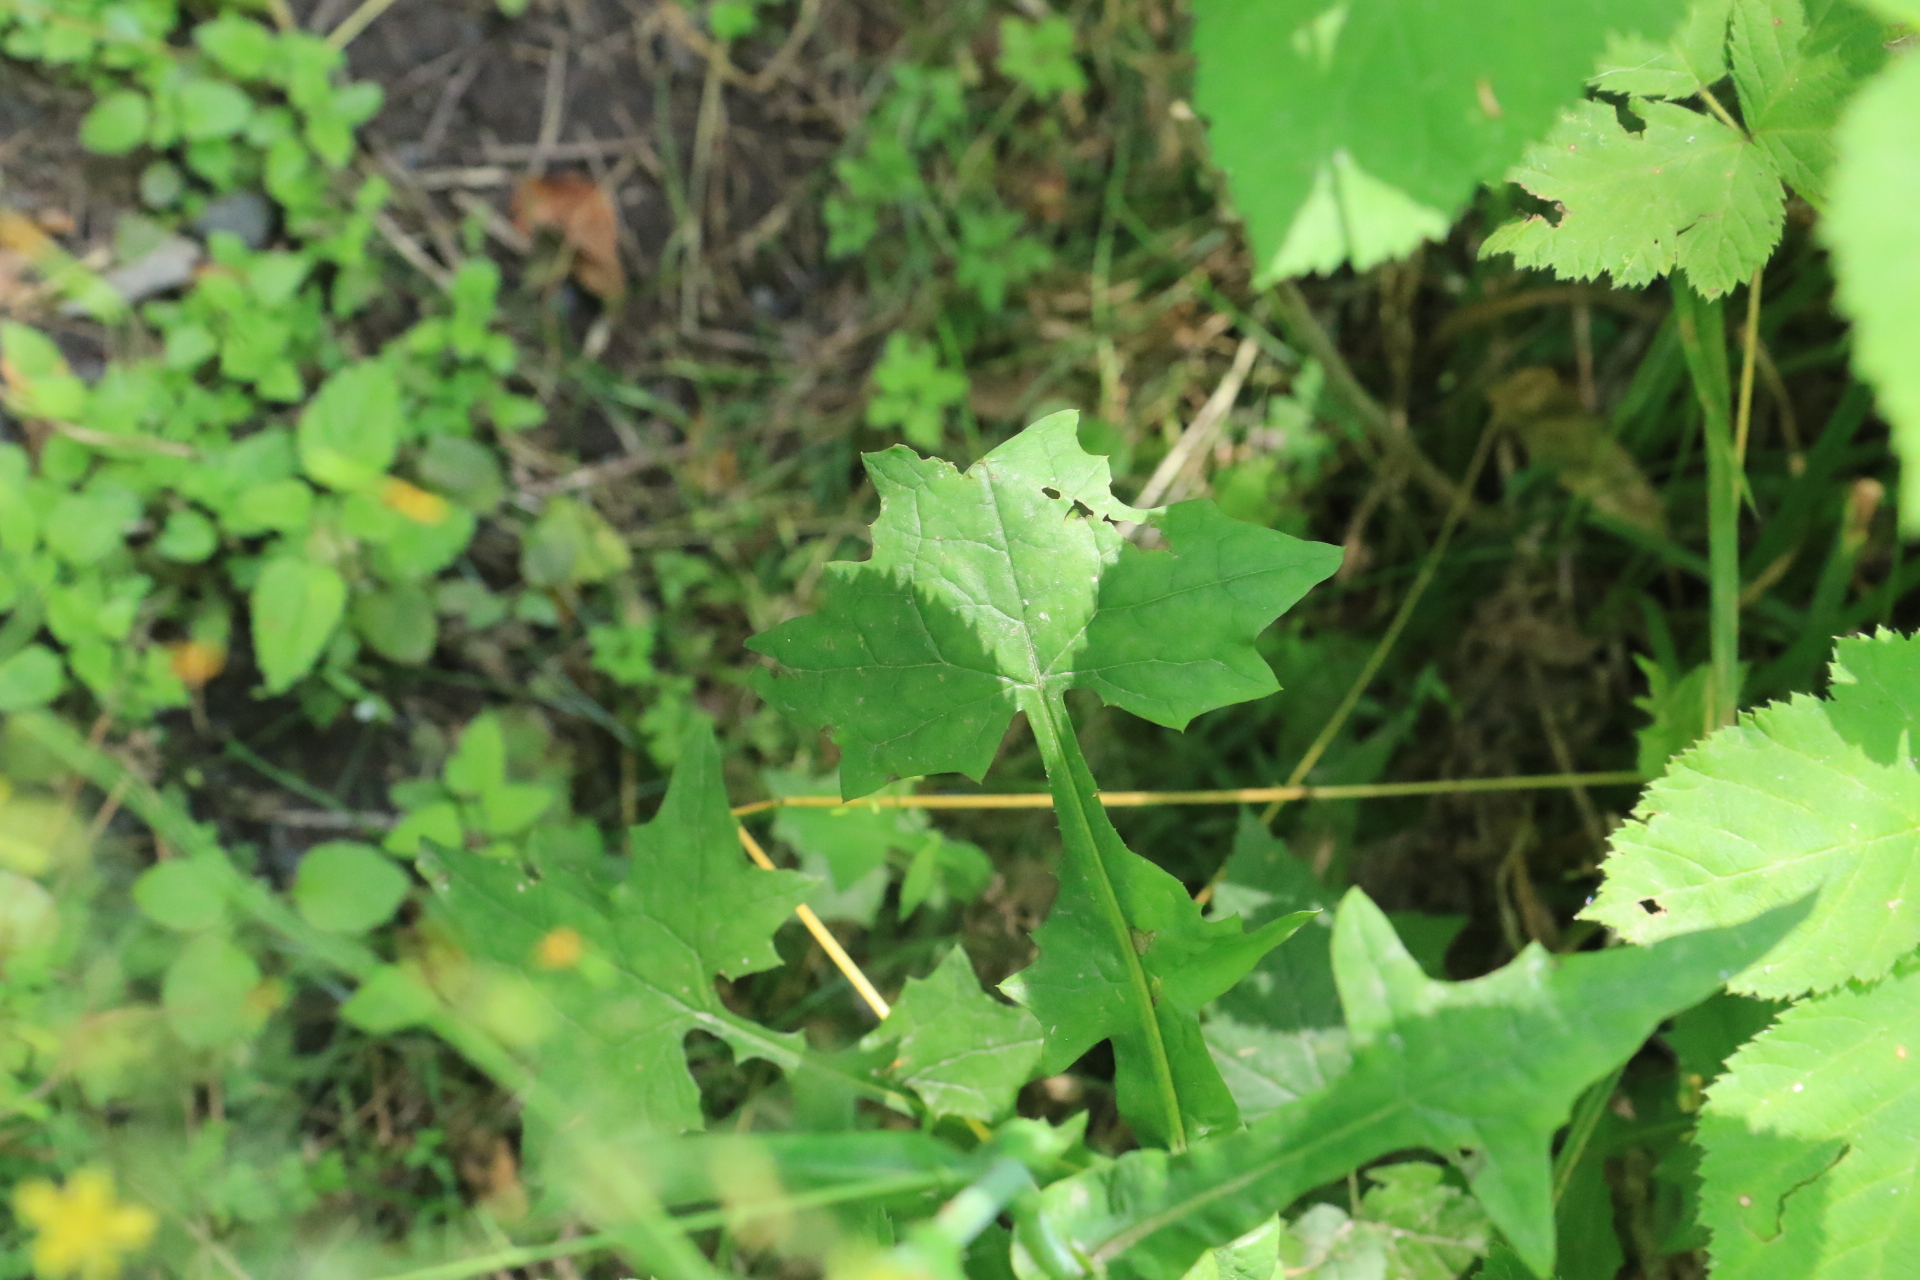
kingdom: Plantae
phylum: Tracheophyta
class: Magnoliopsida
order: Asterales
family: Asteraceae
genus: Mycelis
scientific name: Mycelis muralis
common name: Wall lettuce
